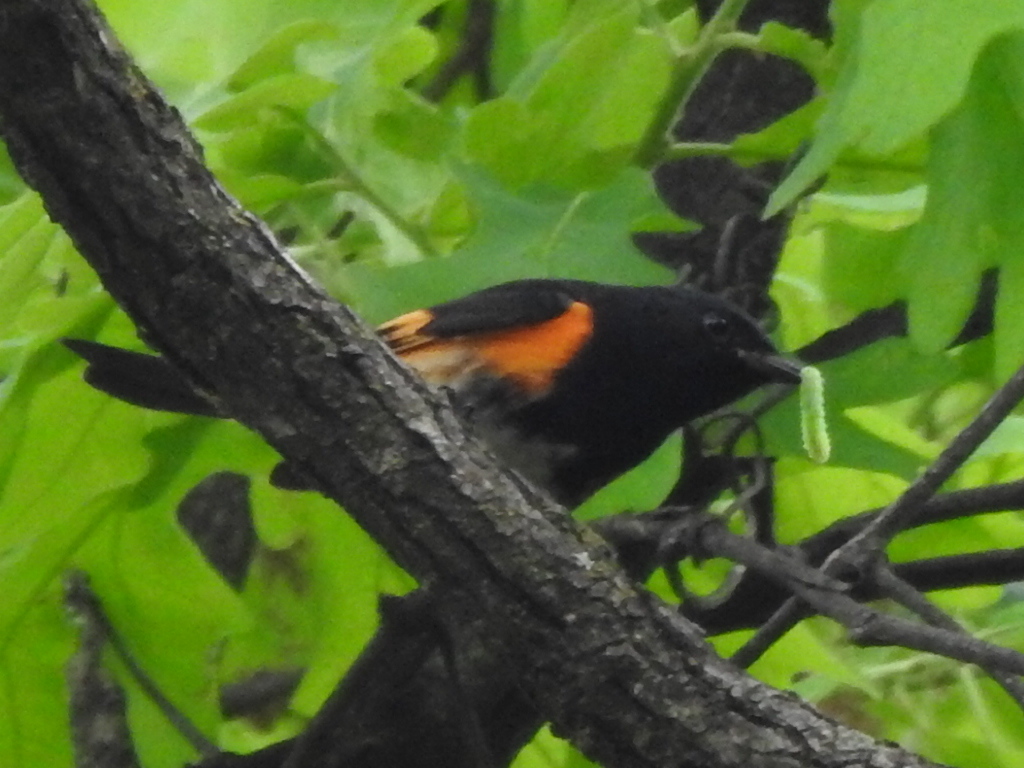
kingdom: Animalia
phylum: Chordata
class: Aves
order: Passeriformes
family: Parulidae
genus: Setophaga
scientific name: Setophaga ruticilla
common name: American redstart
